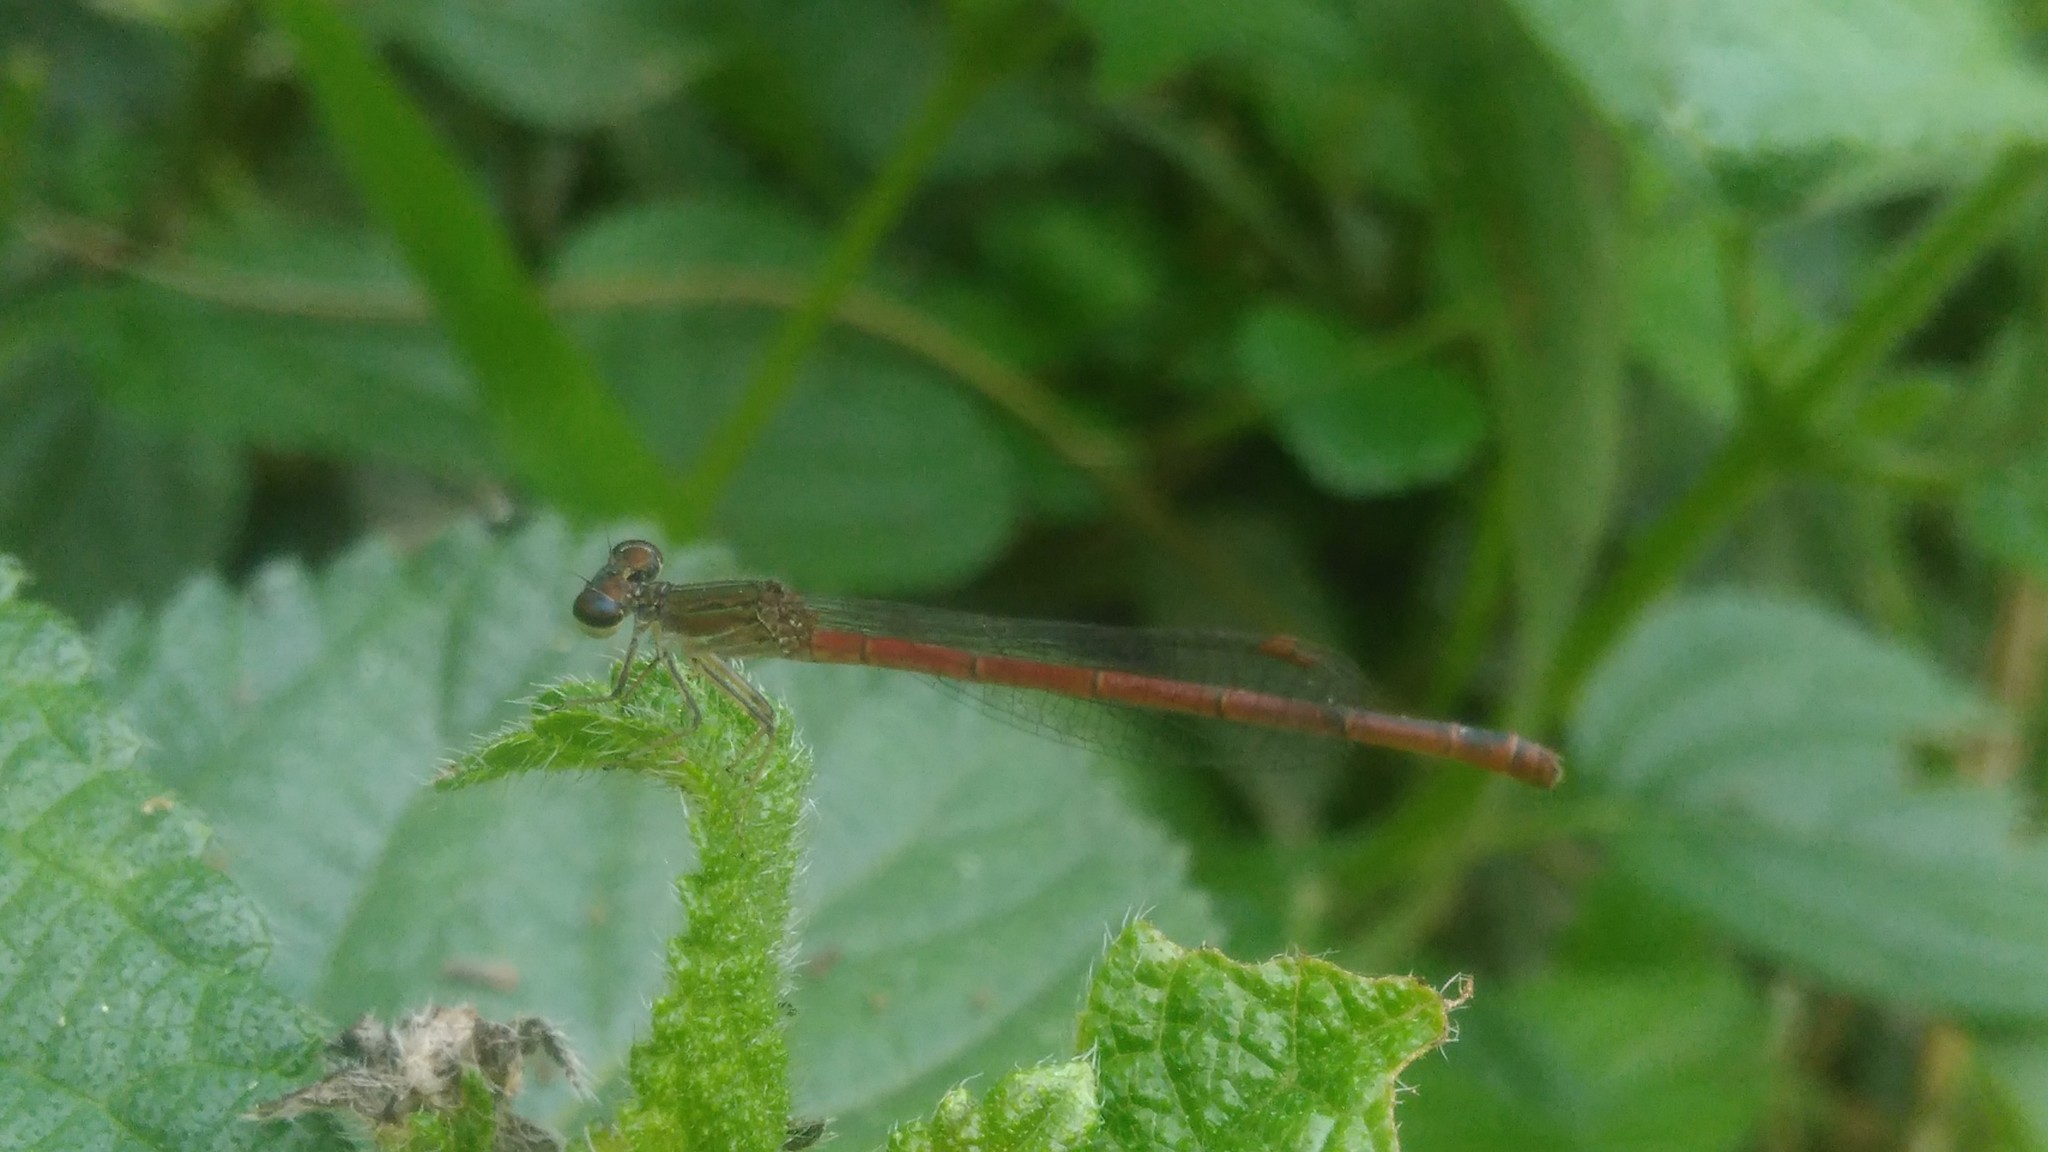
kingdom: Animalia
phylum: Arthropoda
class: Insecta
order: Odonata
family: Coenagrionidae
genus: Telebasis
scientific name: Telebasis willinki
